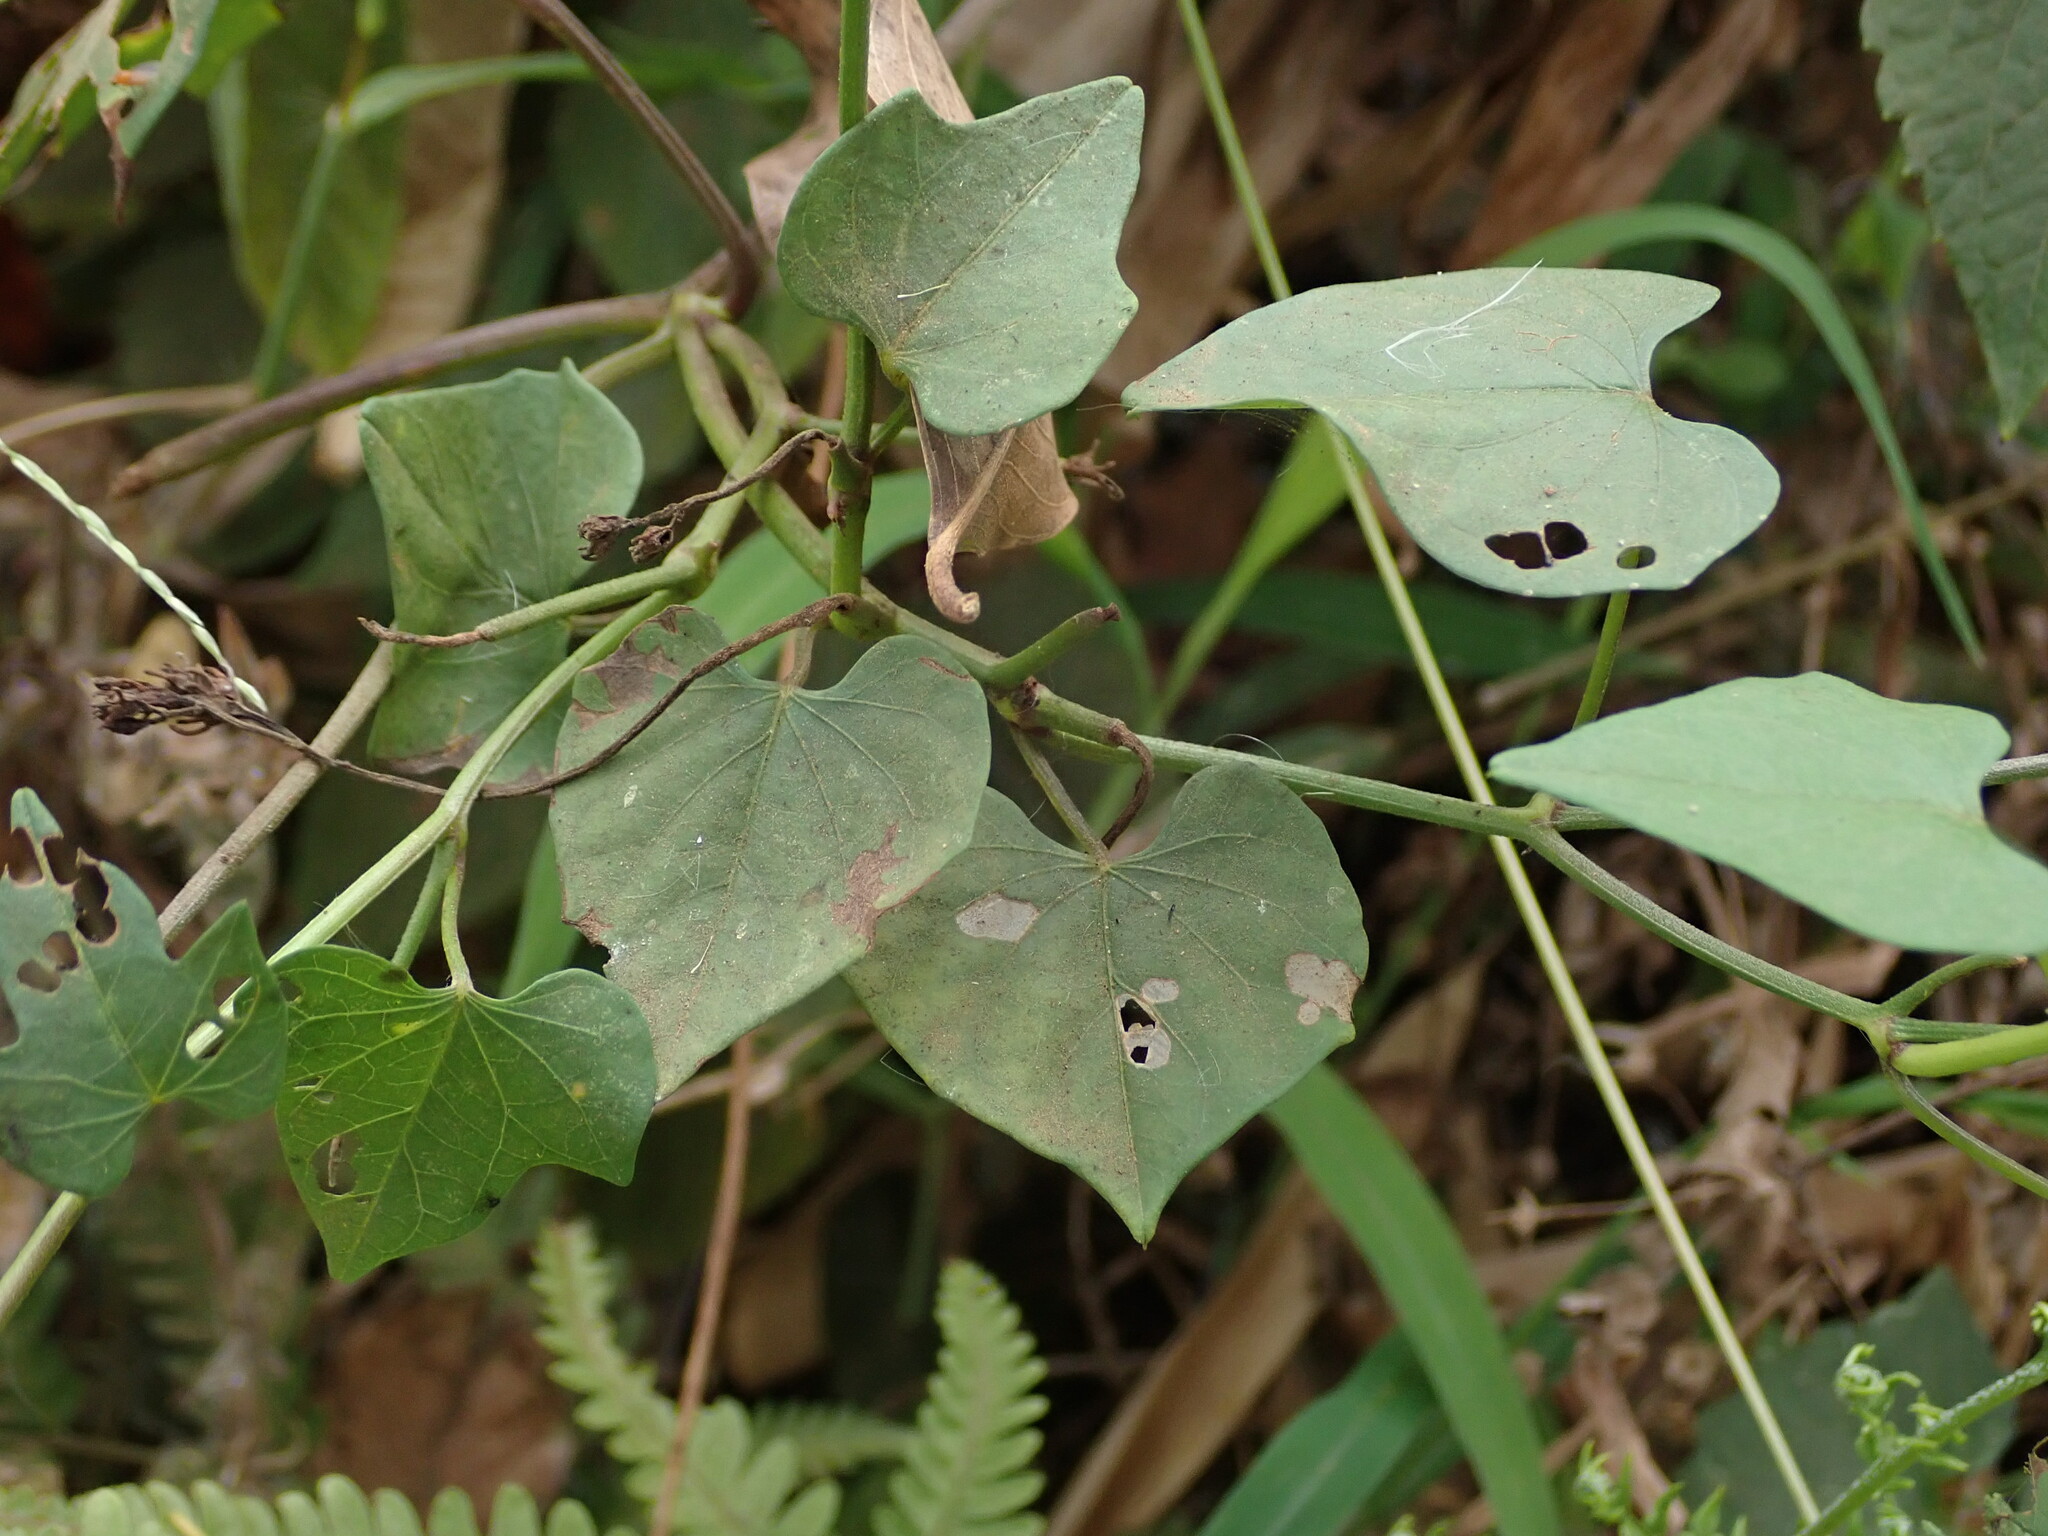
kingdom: Plantae
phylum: Tracheophyta
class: Magnoliopsida
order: Solanales
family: Convolvulaceae
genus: Ipomoea
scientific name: Ipomoea hederifolia
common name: Ivy-leaf morning-glory
